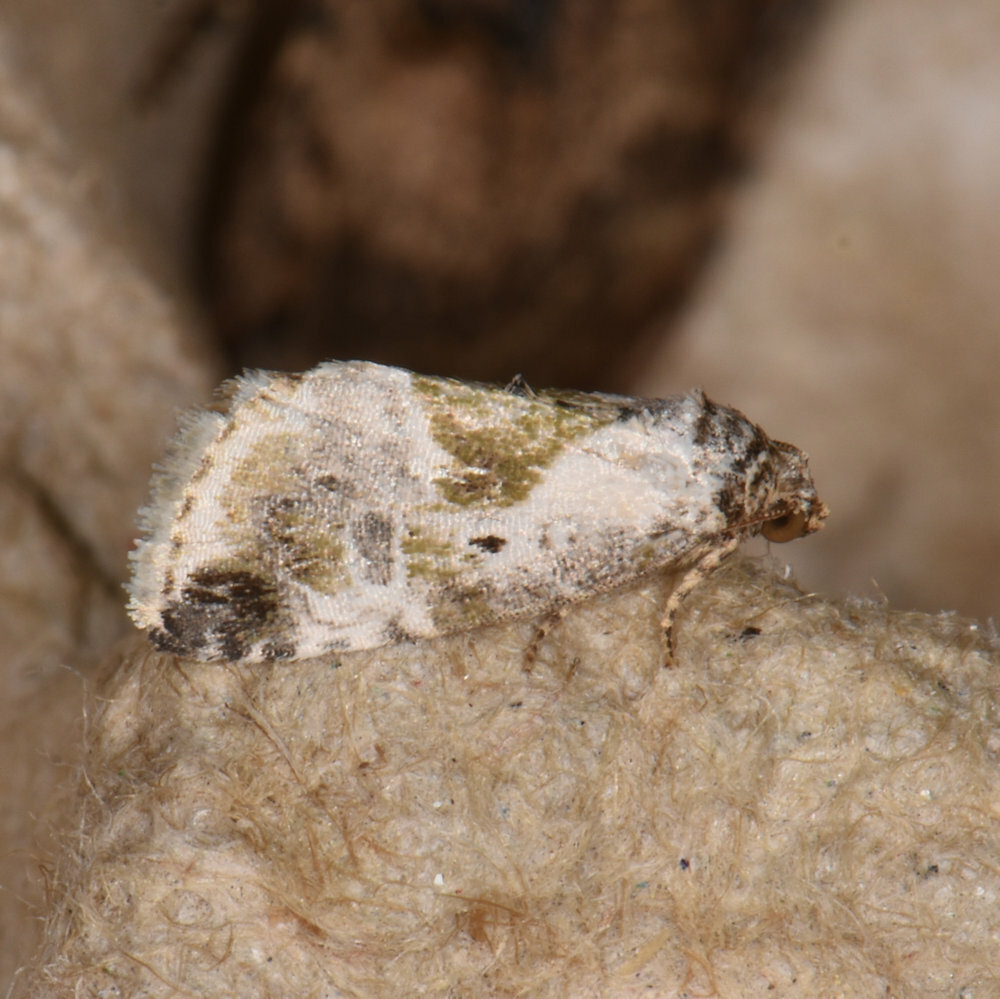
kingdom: Animalia
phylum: Arthropoda
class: Insecta
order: Lepidoptera
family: Noctuidae
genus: Maliattha
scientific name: Maliattha synochitis
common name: Black-dotted glyph
